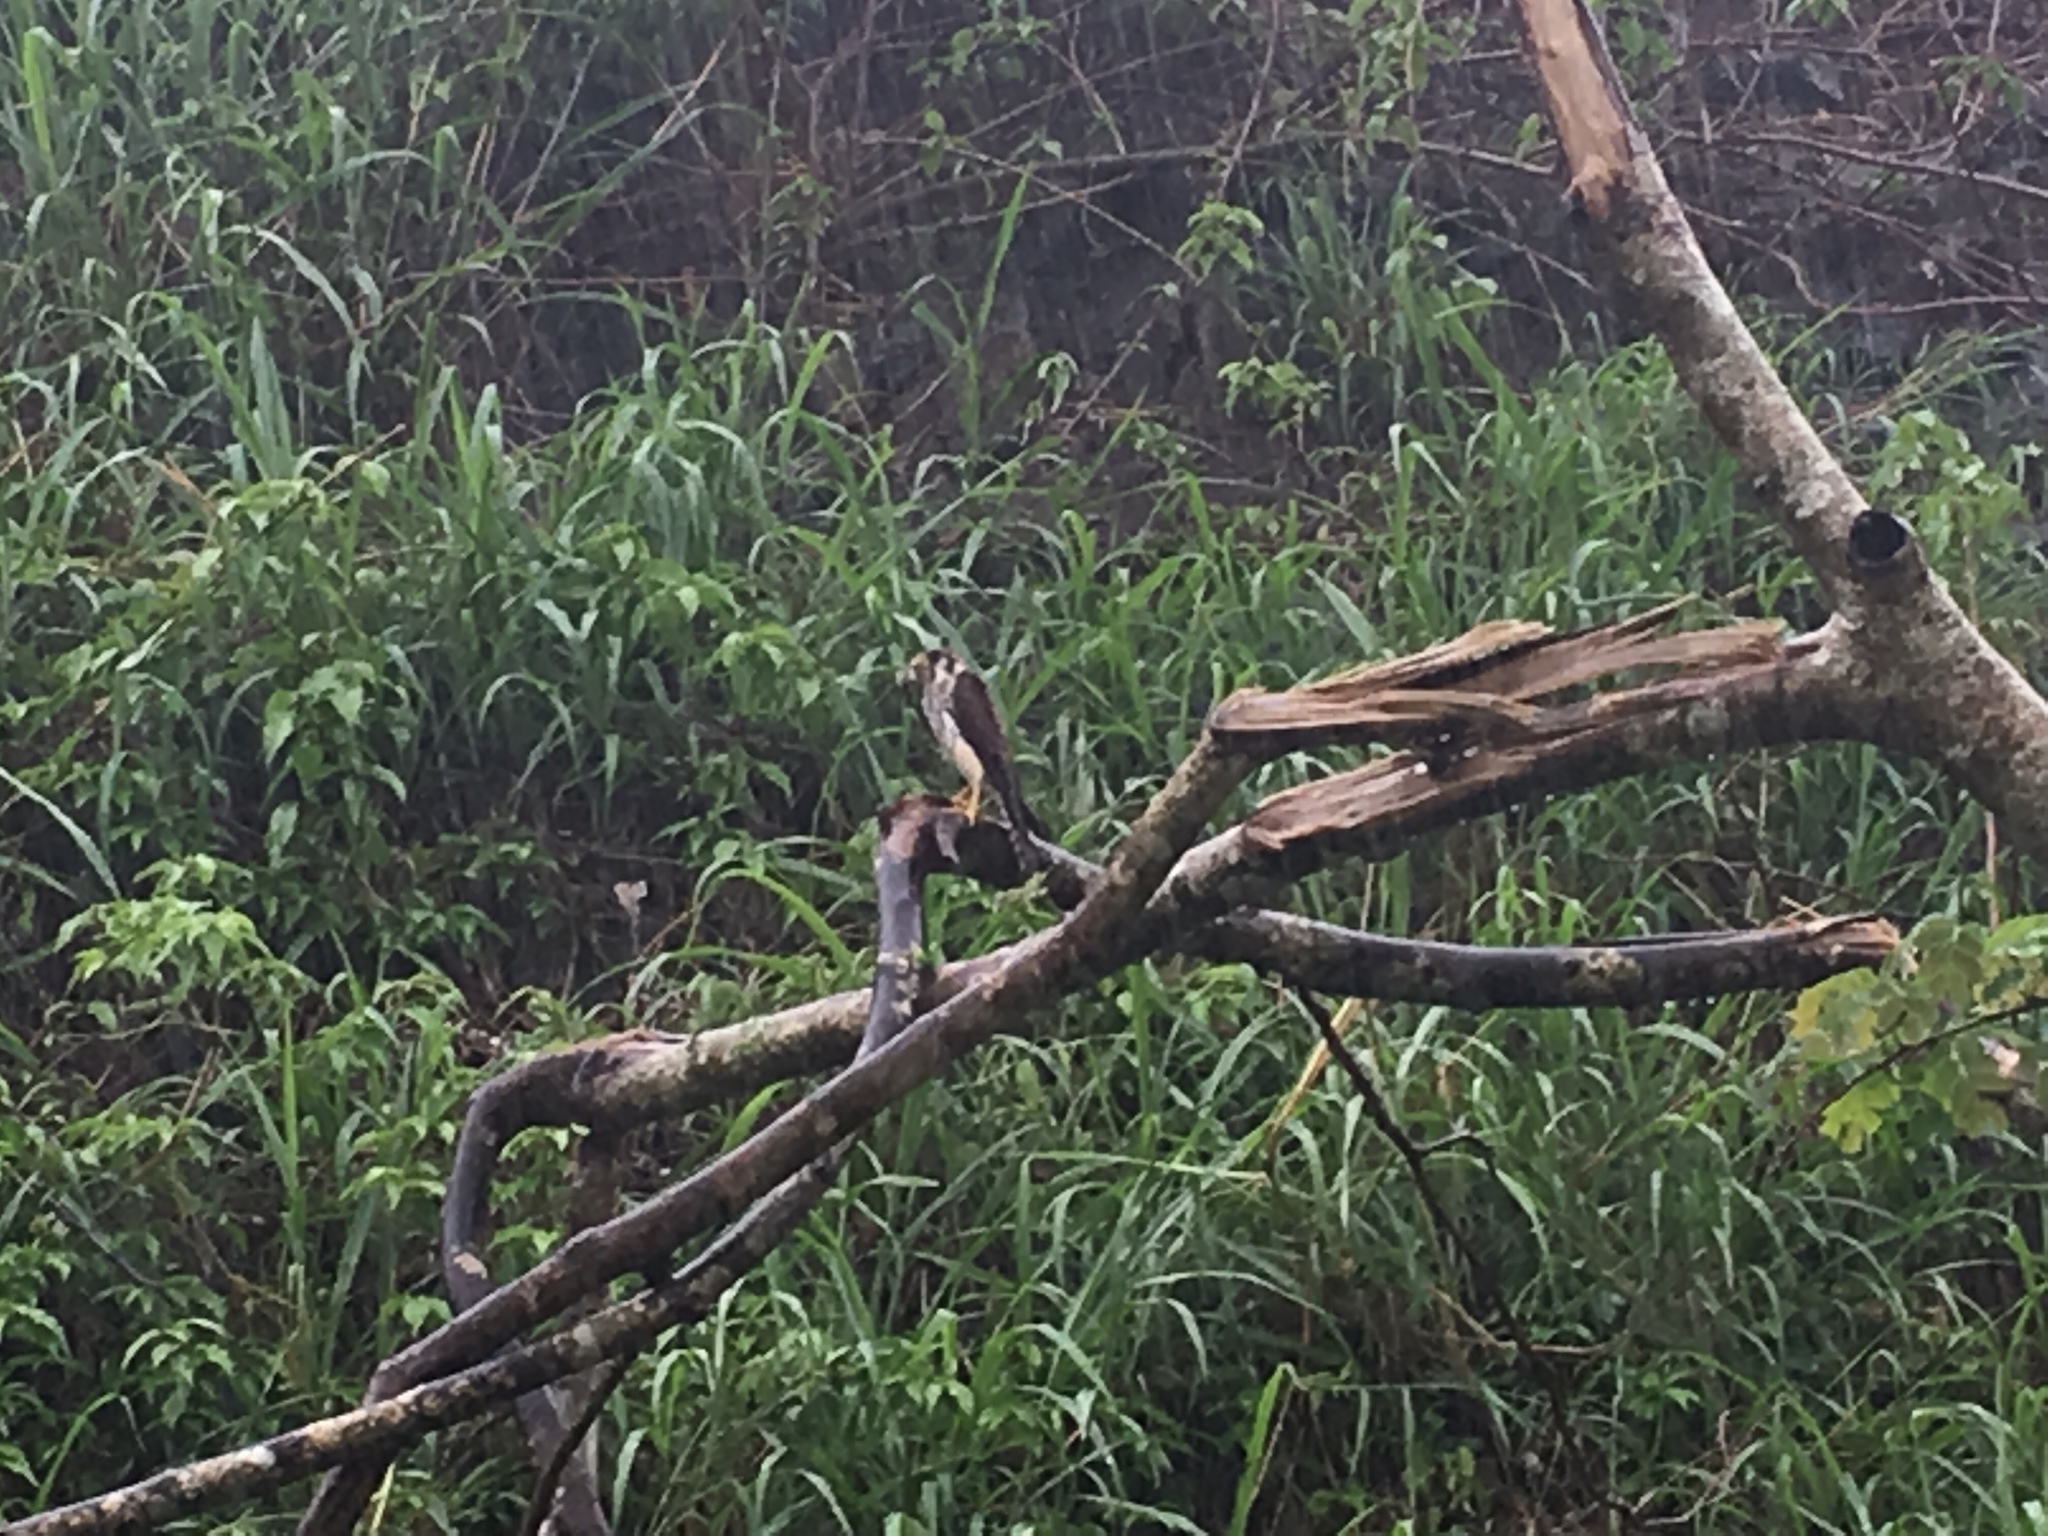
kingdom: Animalia
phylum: Chordata
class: Aves
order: Falconiformes
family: Falconidae
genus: Falco
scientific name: Falco sparverius
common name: American kestrel
